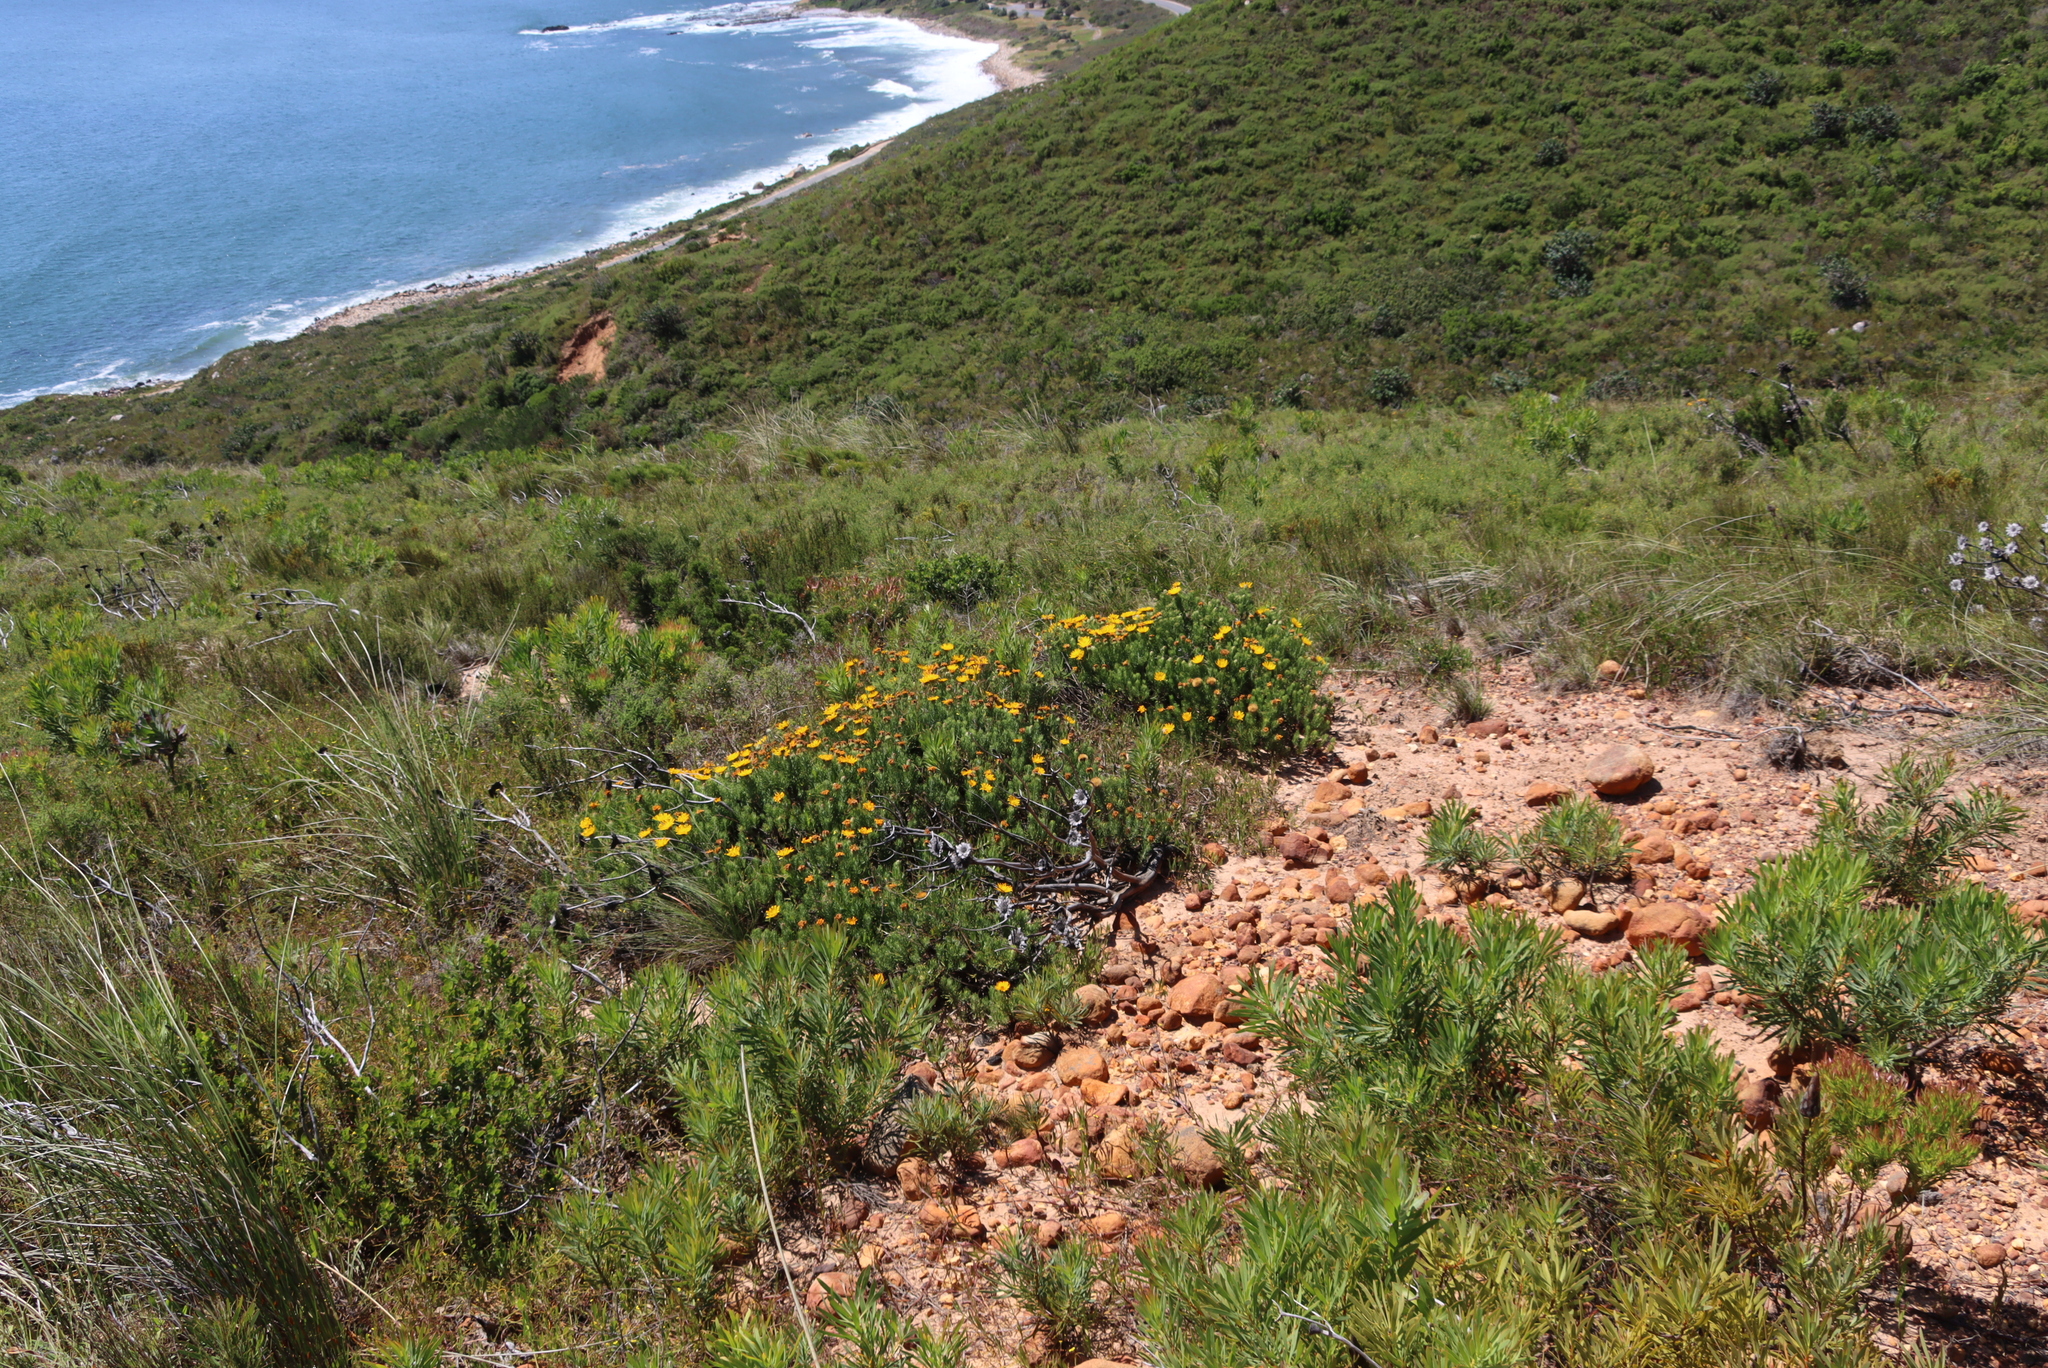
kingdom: Plantae
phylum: Tracheophyta
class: Magnoliopsida
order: Asterales
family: Asteraceae
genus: Heterolepis
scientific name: Heterolepis aliena
